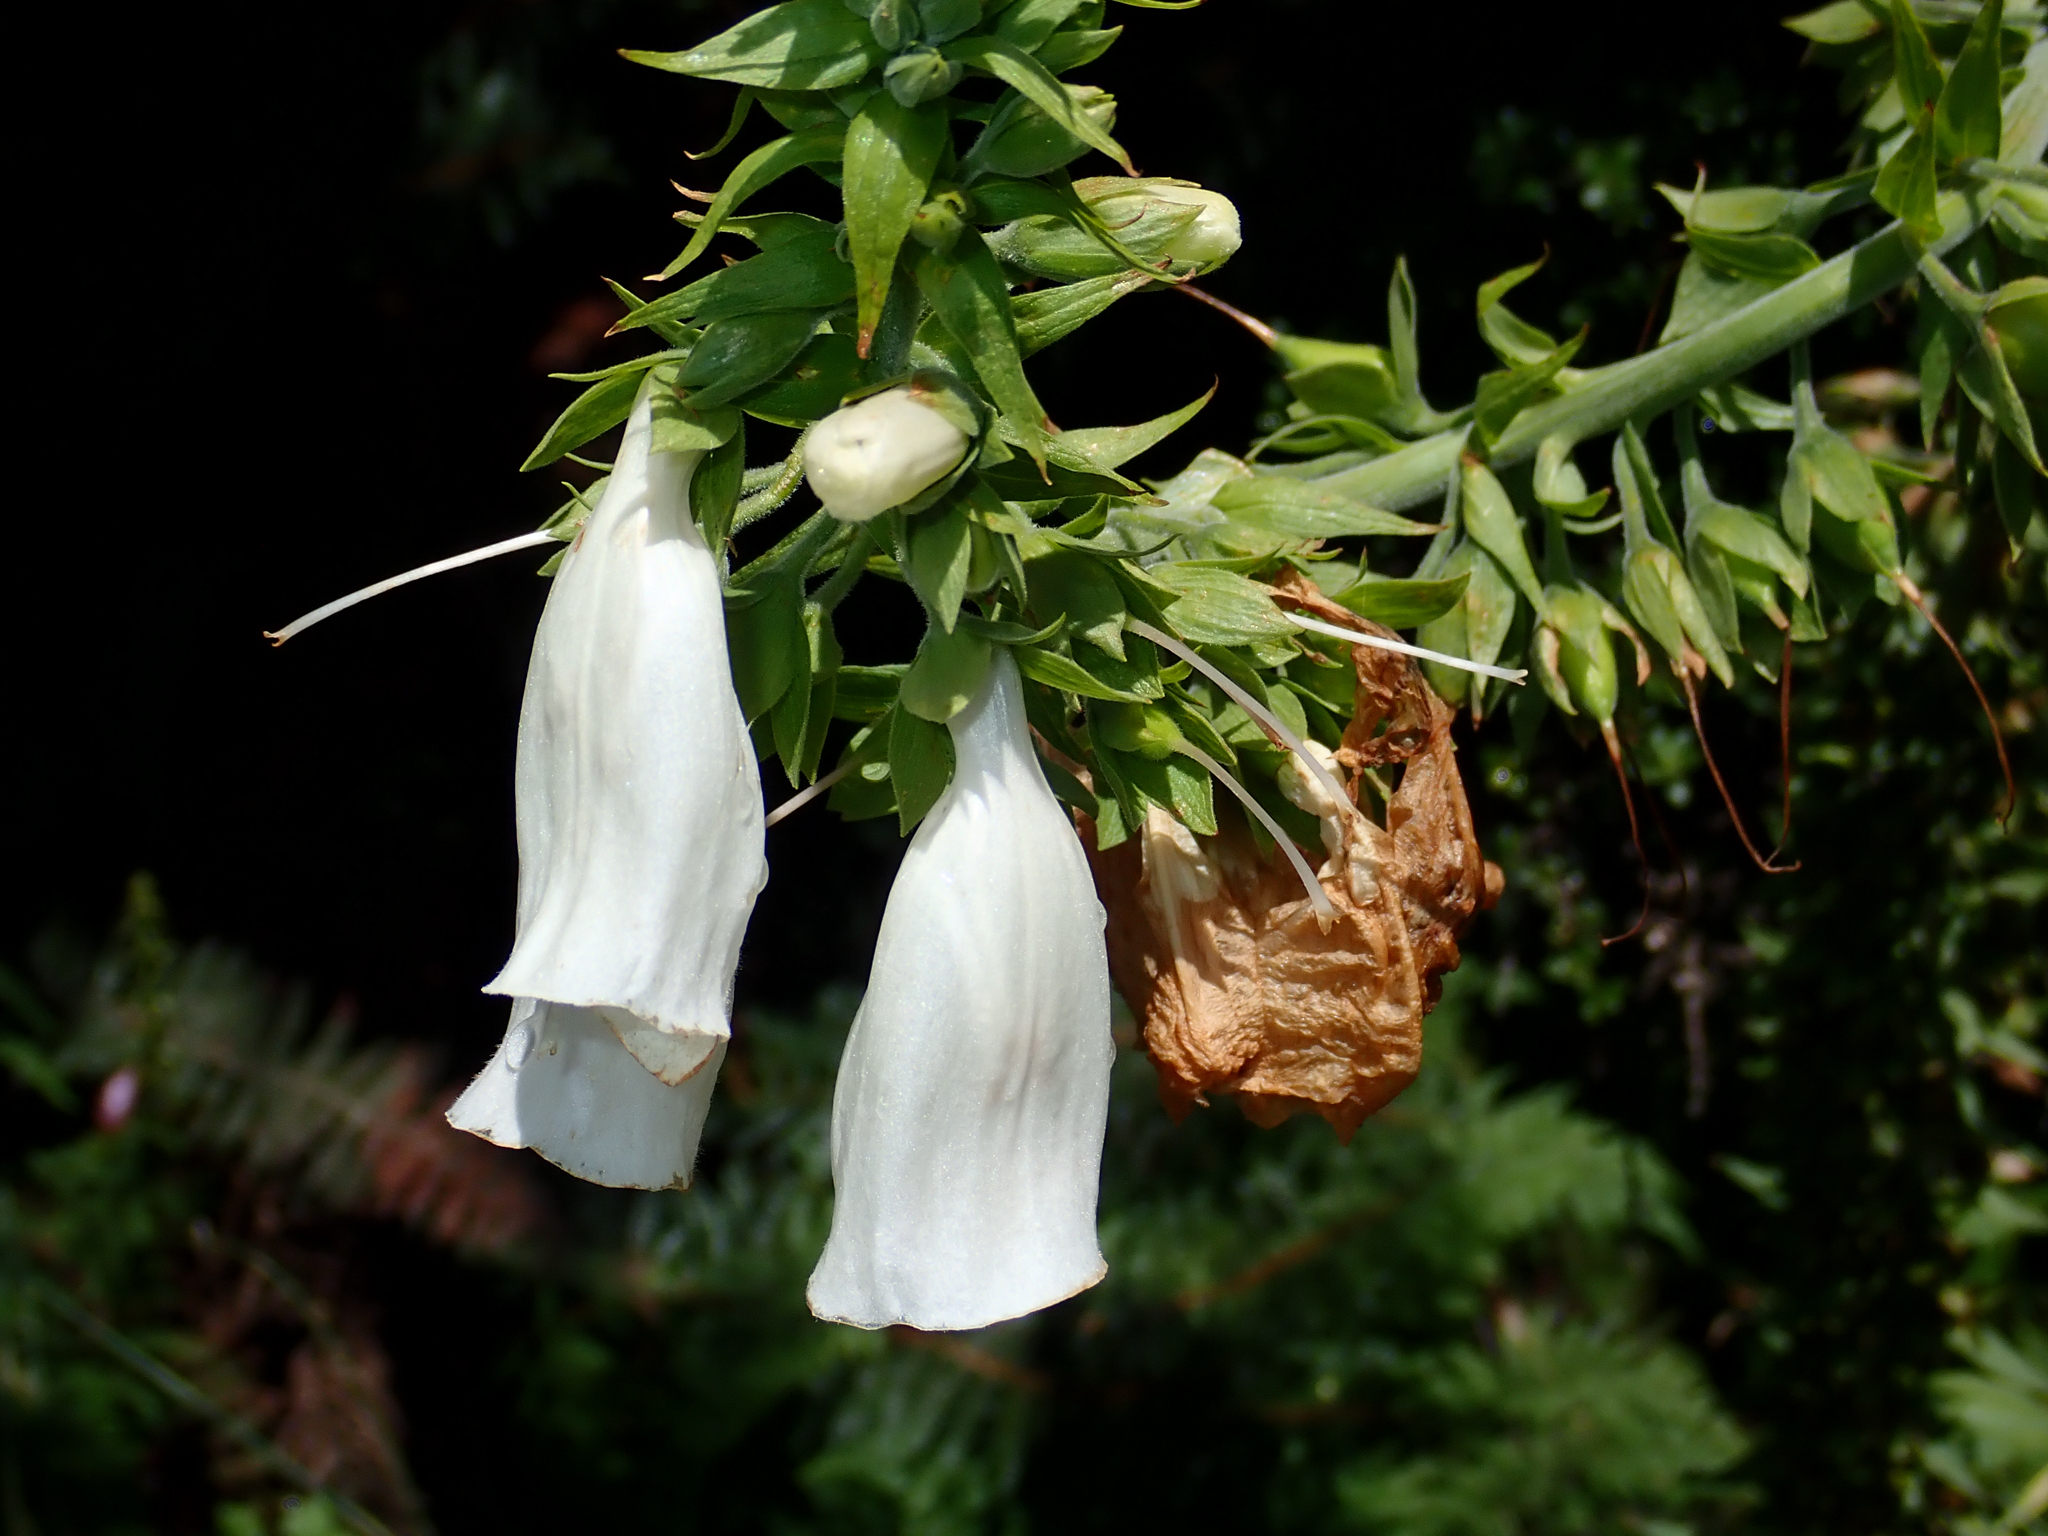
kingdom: Plantae
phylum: Tracheophyta
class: Magnoliopsida
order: Lamiales
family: Plantaginaceae
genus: Digitalis
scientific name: Digitalis purpurea
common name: Foxglove
